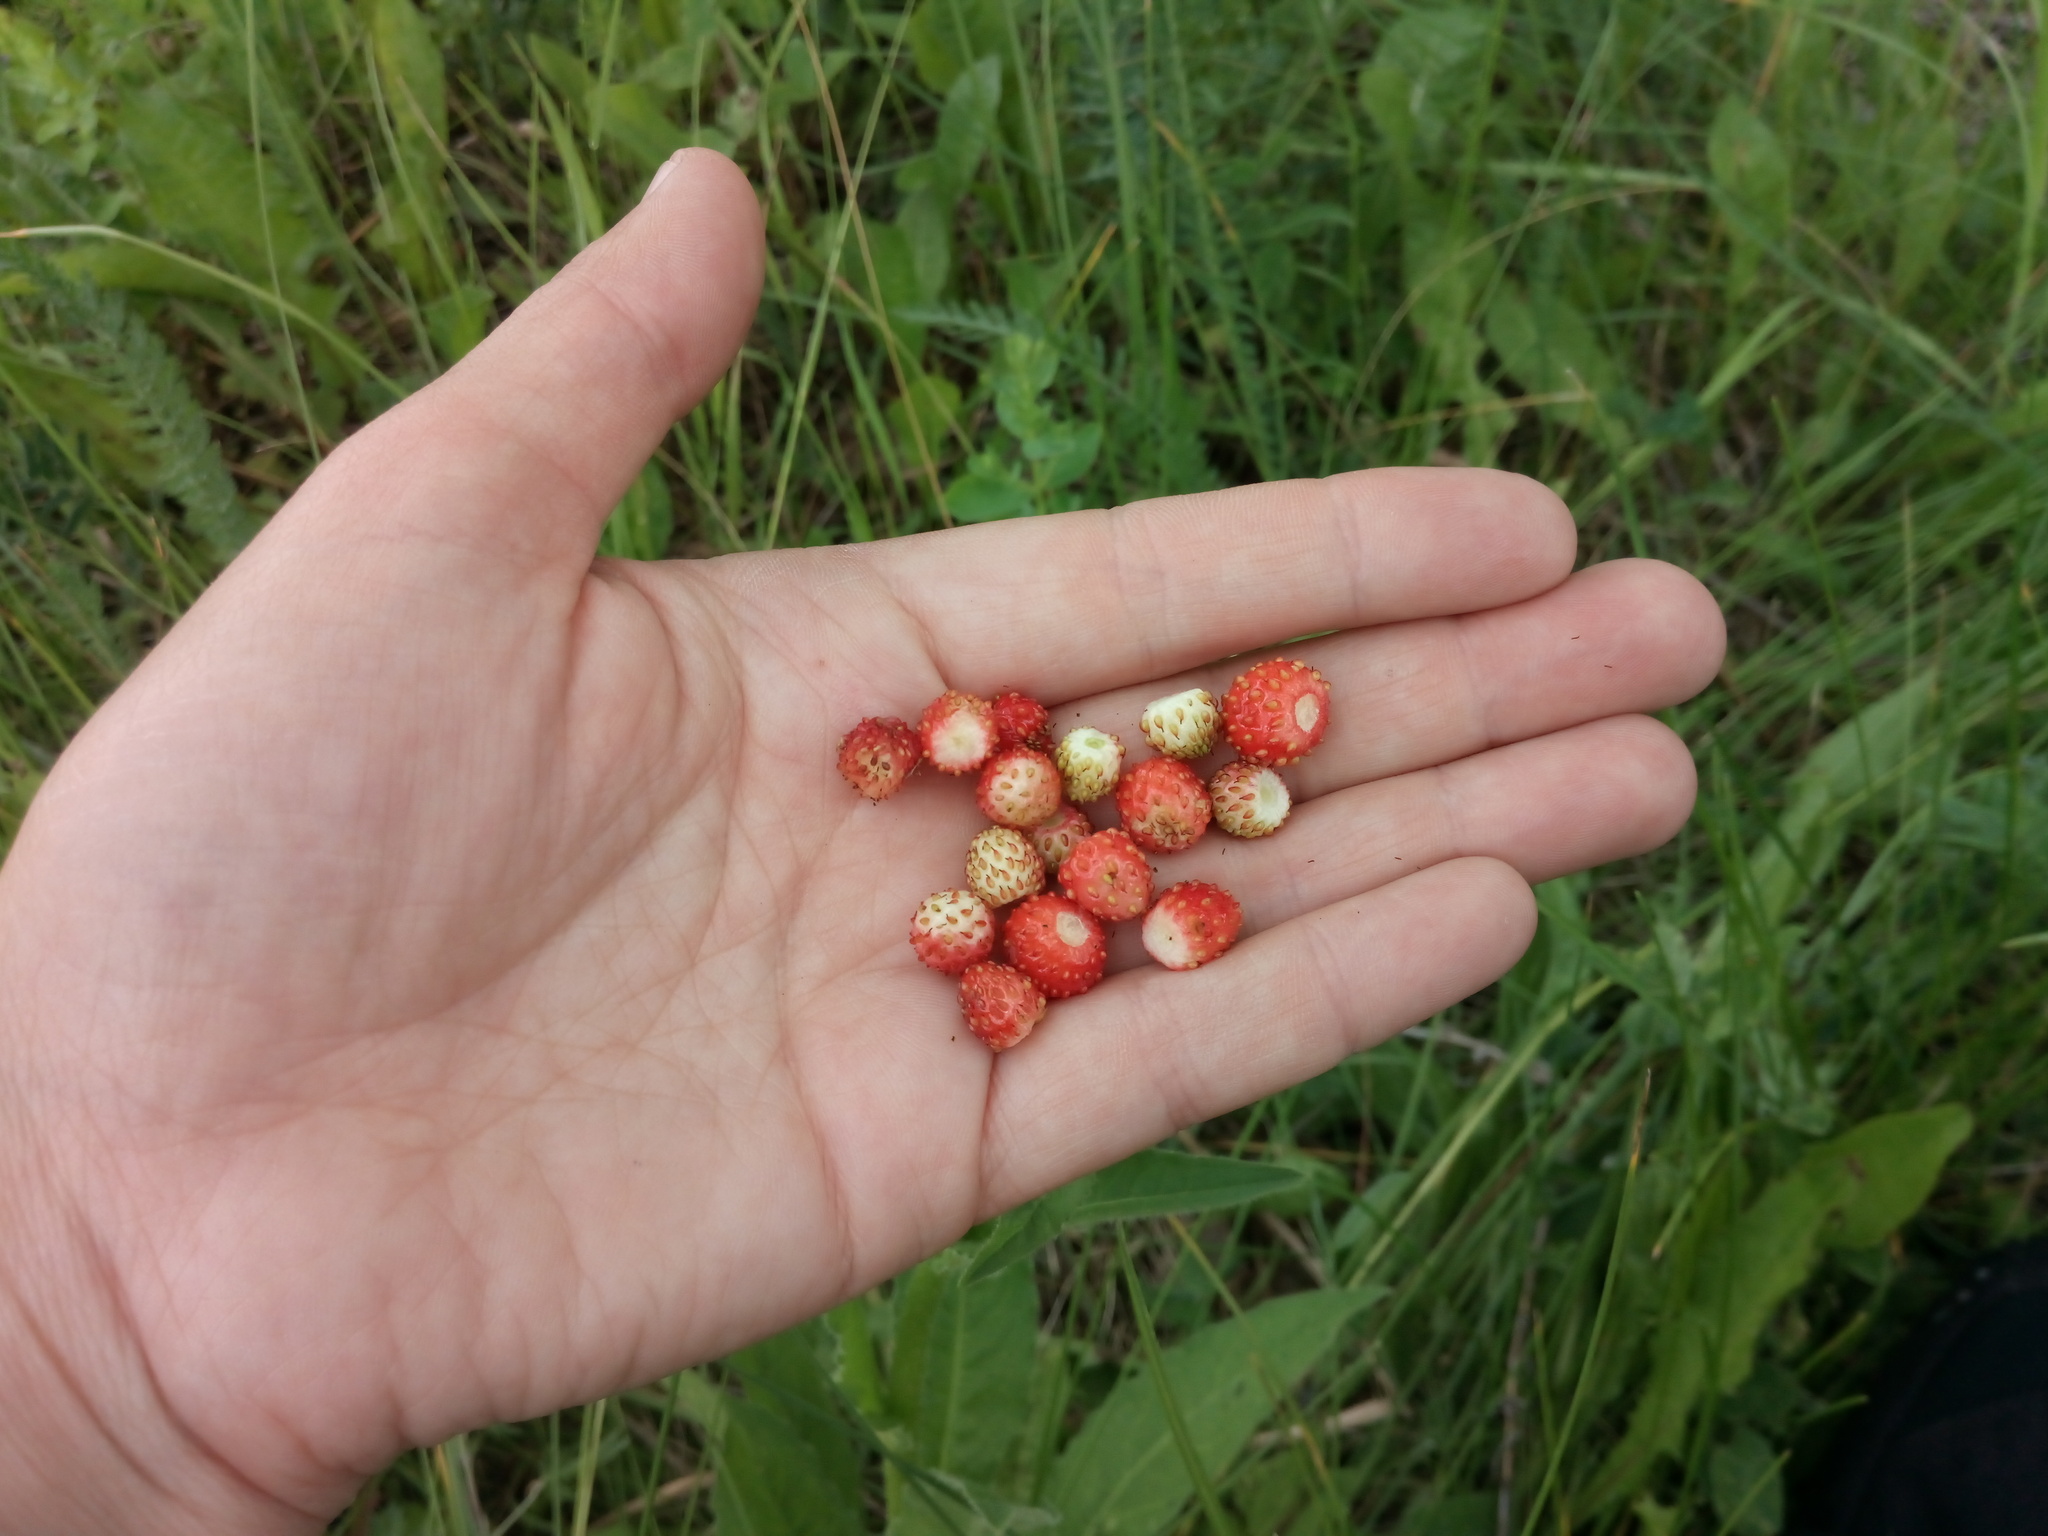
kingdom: Plantae
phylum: Tracheophyta
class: Magnoliopsida
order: Rosales
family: Rosaceae
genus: Fragaria
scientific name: Fragaria vesca
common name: Wild strawberry
